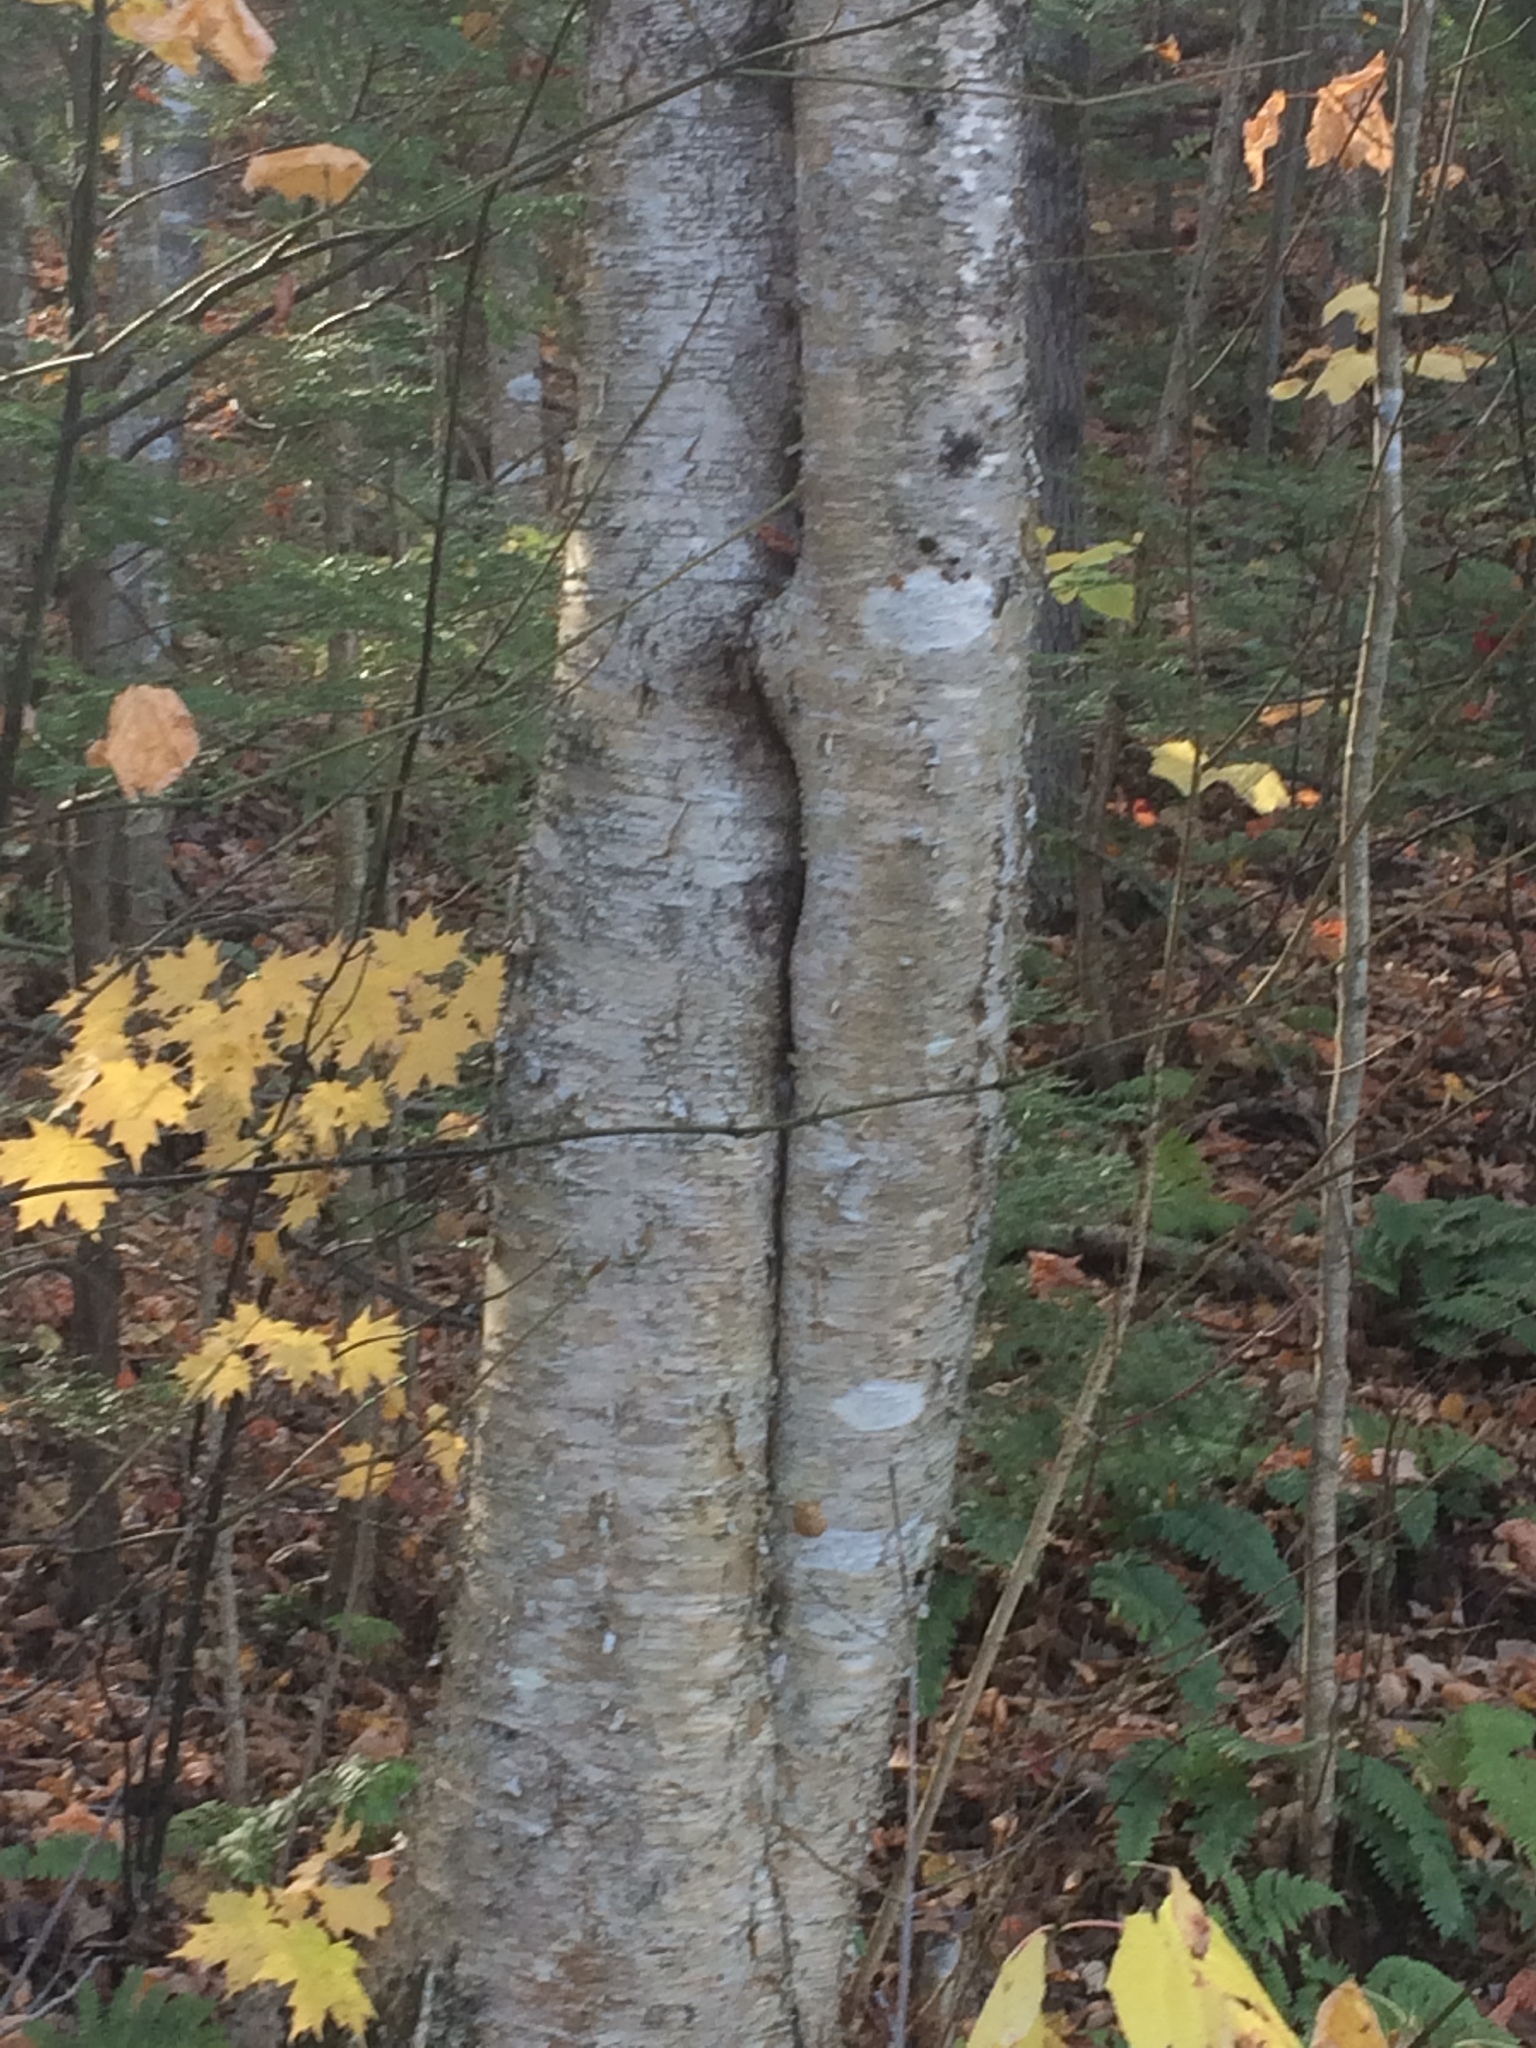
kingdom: Plantae
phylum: Tracheophyta
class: Magnoliopsida
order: Fagales
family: Betulaceae
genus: Betula
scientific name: Betula alleghaniensis
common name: Yellow birch
